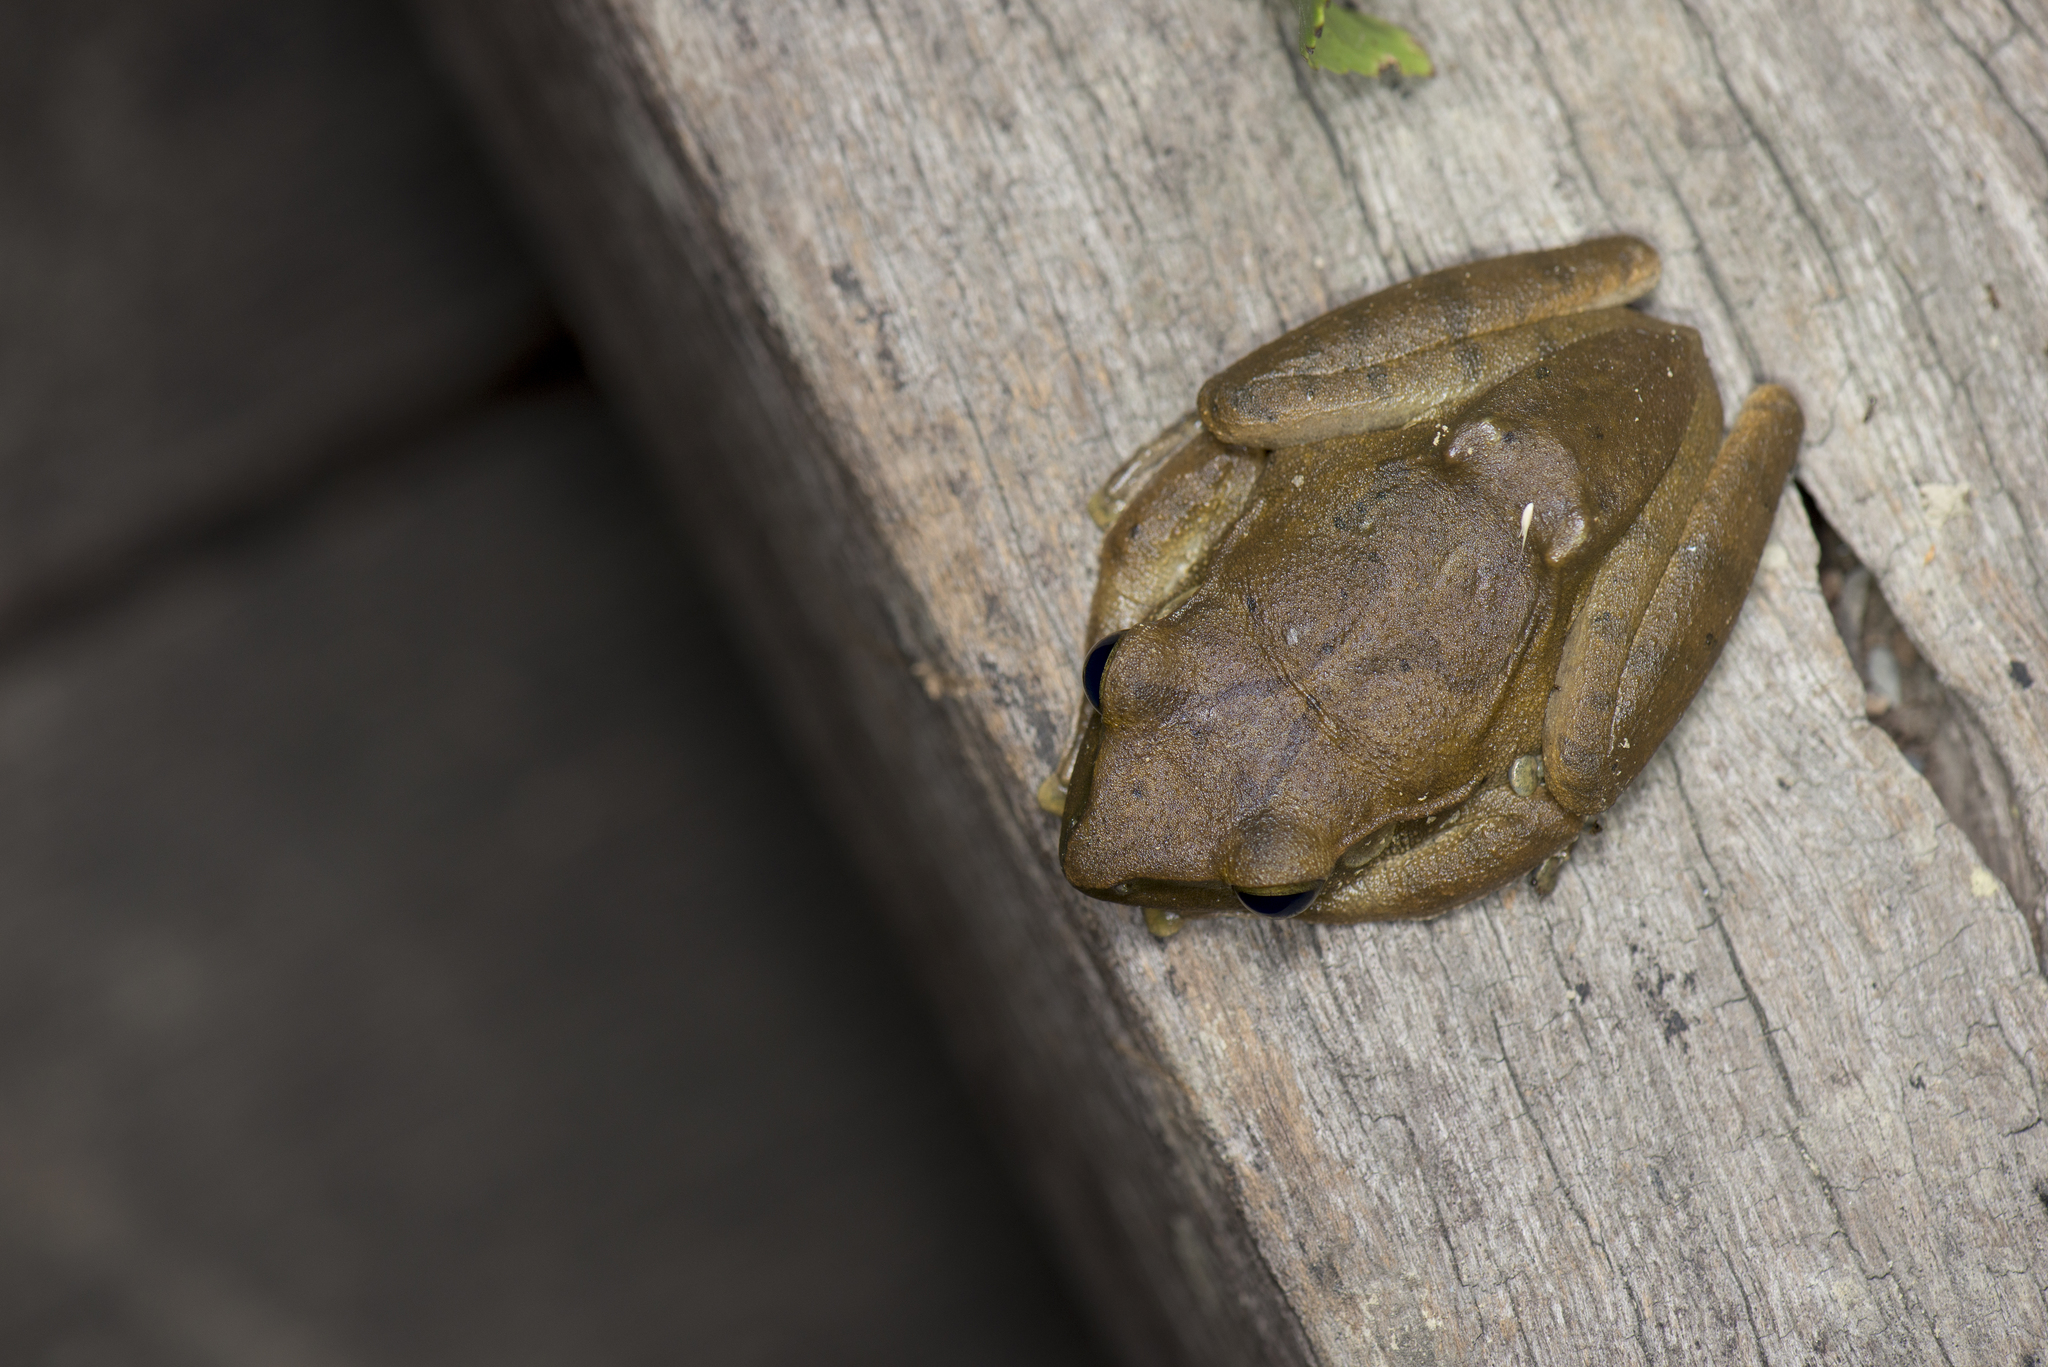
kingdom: Animalia
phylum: Chordata
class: Amphibia
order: Anura
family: Rhacophoridae
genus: Polypedates
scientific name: Polypedates megacephalus
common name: Hong kong whipping frog
